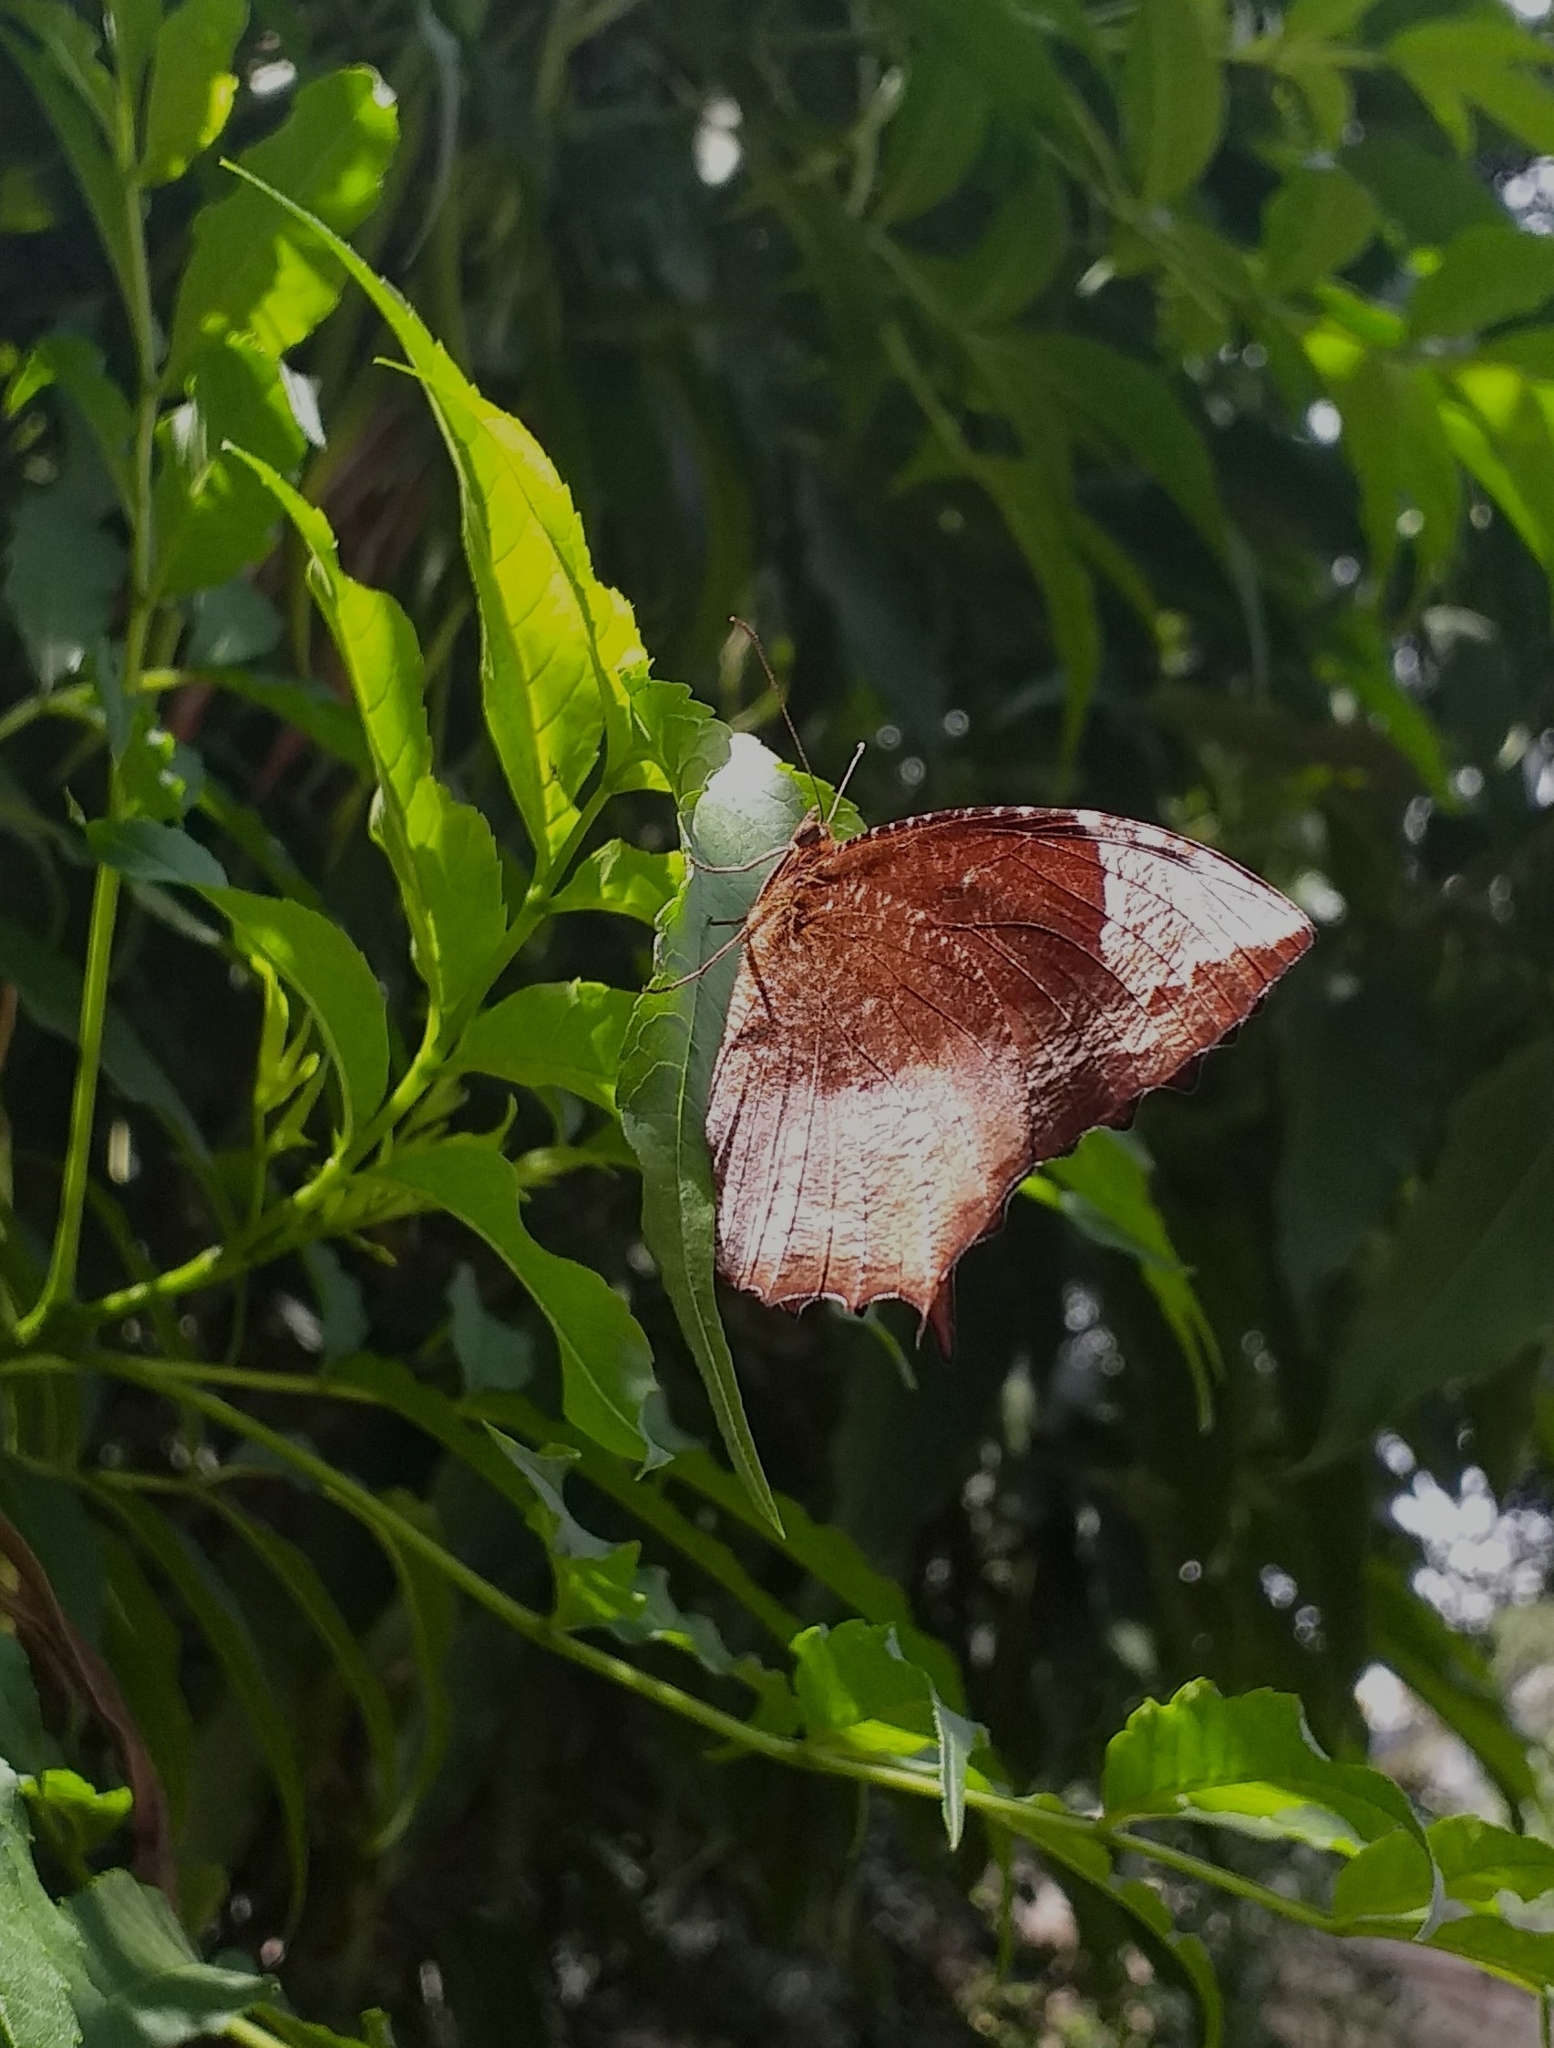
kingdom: Animalia
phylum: Arthropoda
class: Insecta
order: Lepidoptera
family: Nymphalidae
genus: Elymnias
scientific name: Elymnias caudata
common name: Tailed palmfly
